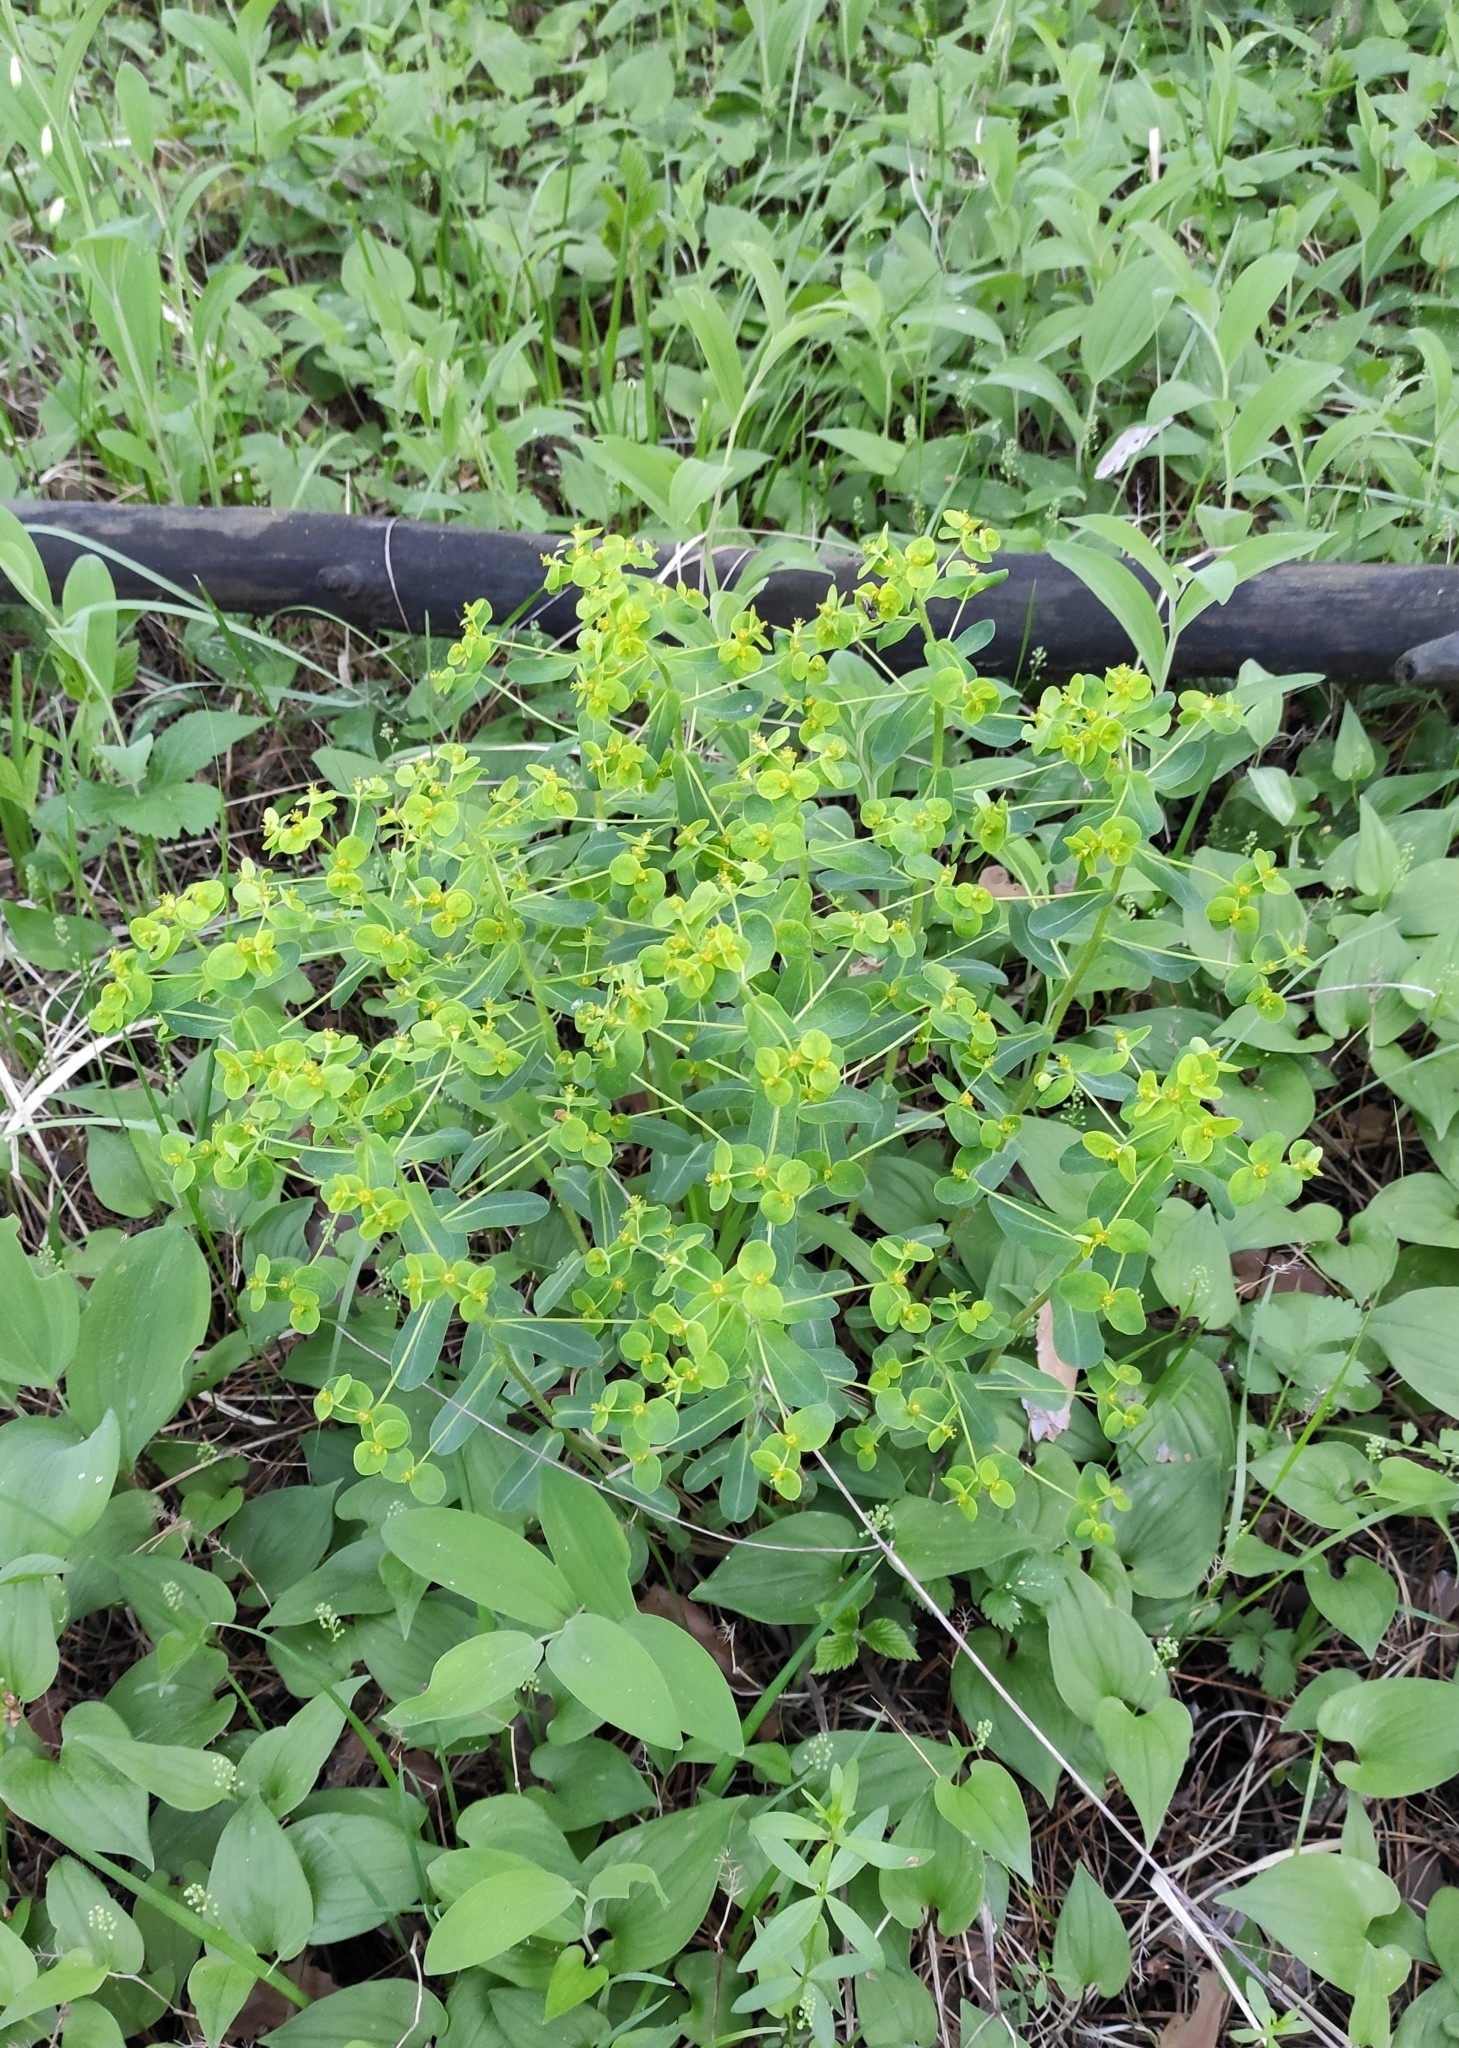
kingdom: Plantae
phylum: Tracheophyta
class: Magnoliopsida
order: Malpighiales
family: Euphorbiaceae
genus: Euphorbia
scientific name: Euphorbia jenisseiensis
